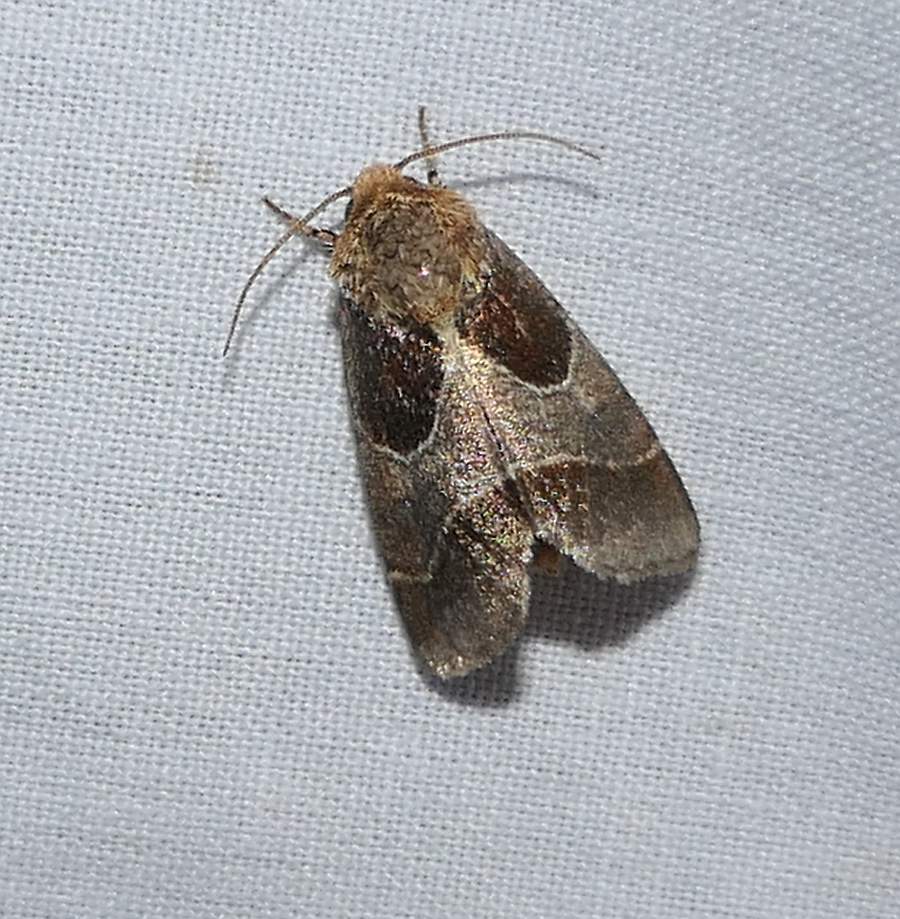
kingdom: Animalia
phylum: Arthropoda
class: Insecta
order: Lepidoptera
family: Noctuidae
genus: Schinia
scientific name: Schinia arcigera
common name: Arcigera flower moth
